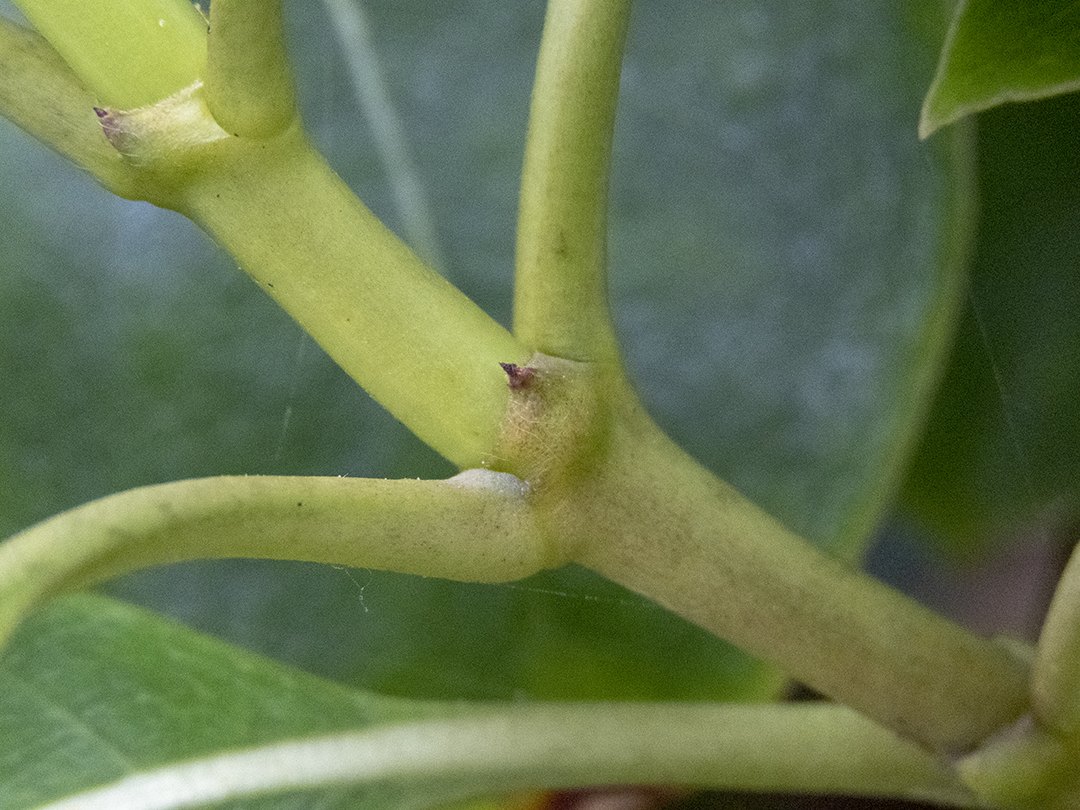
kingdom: Plantae
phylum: Tracheophyta
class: Magnoliopsida
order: Gentianales
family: Rubiaceae
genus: Coprosma
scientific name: Coprosma lucida
